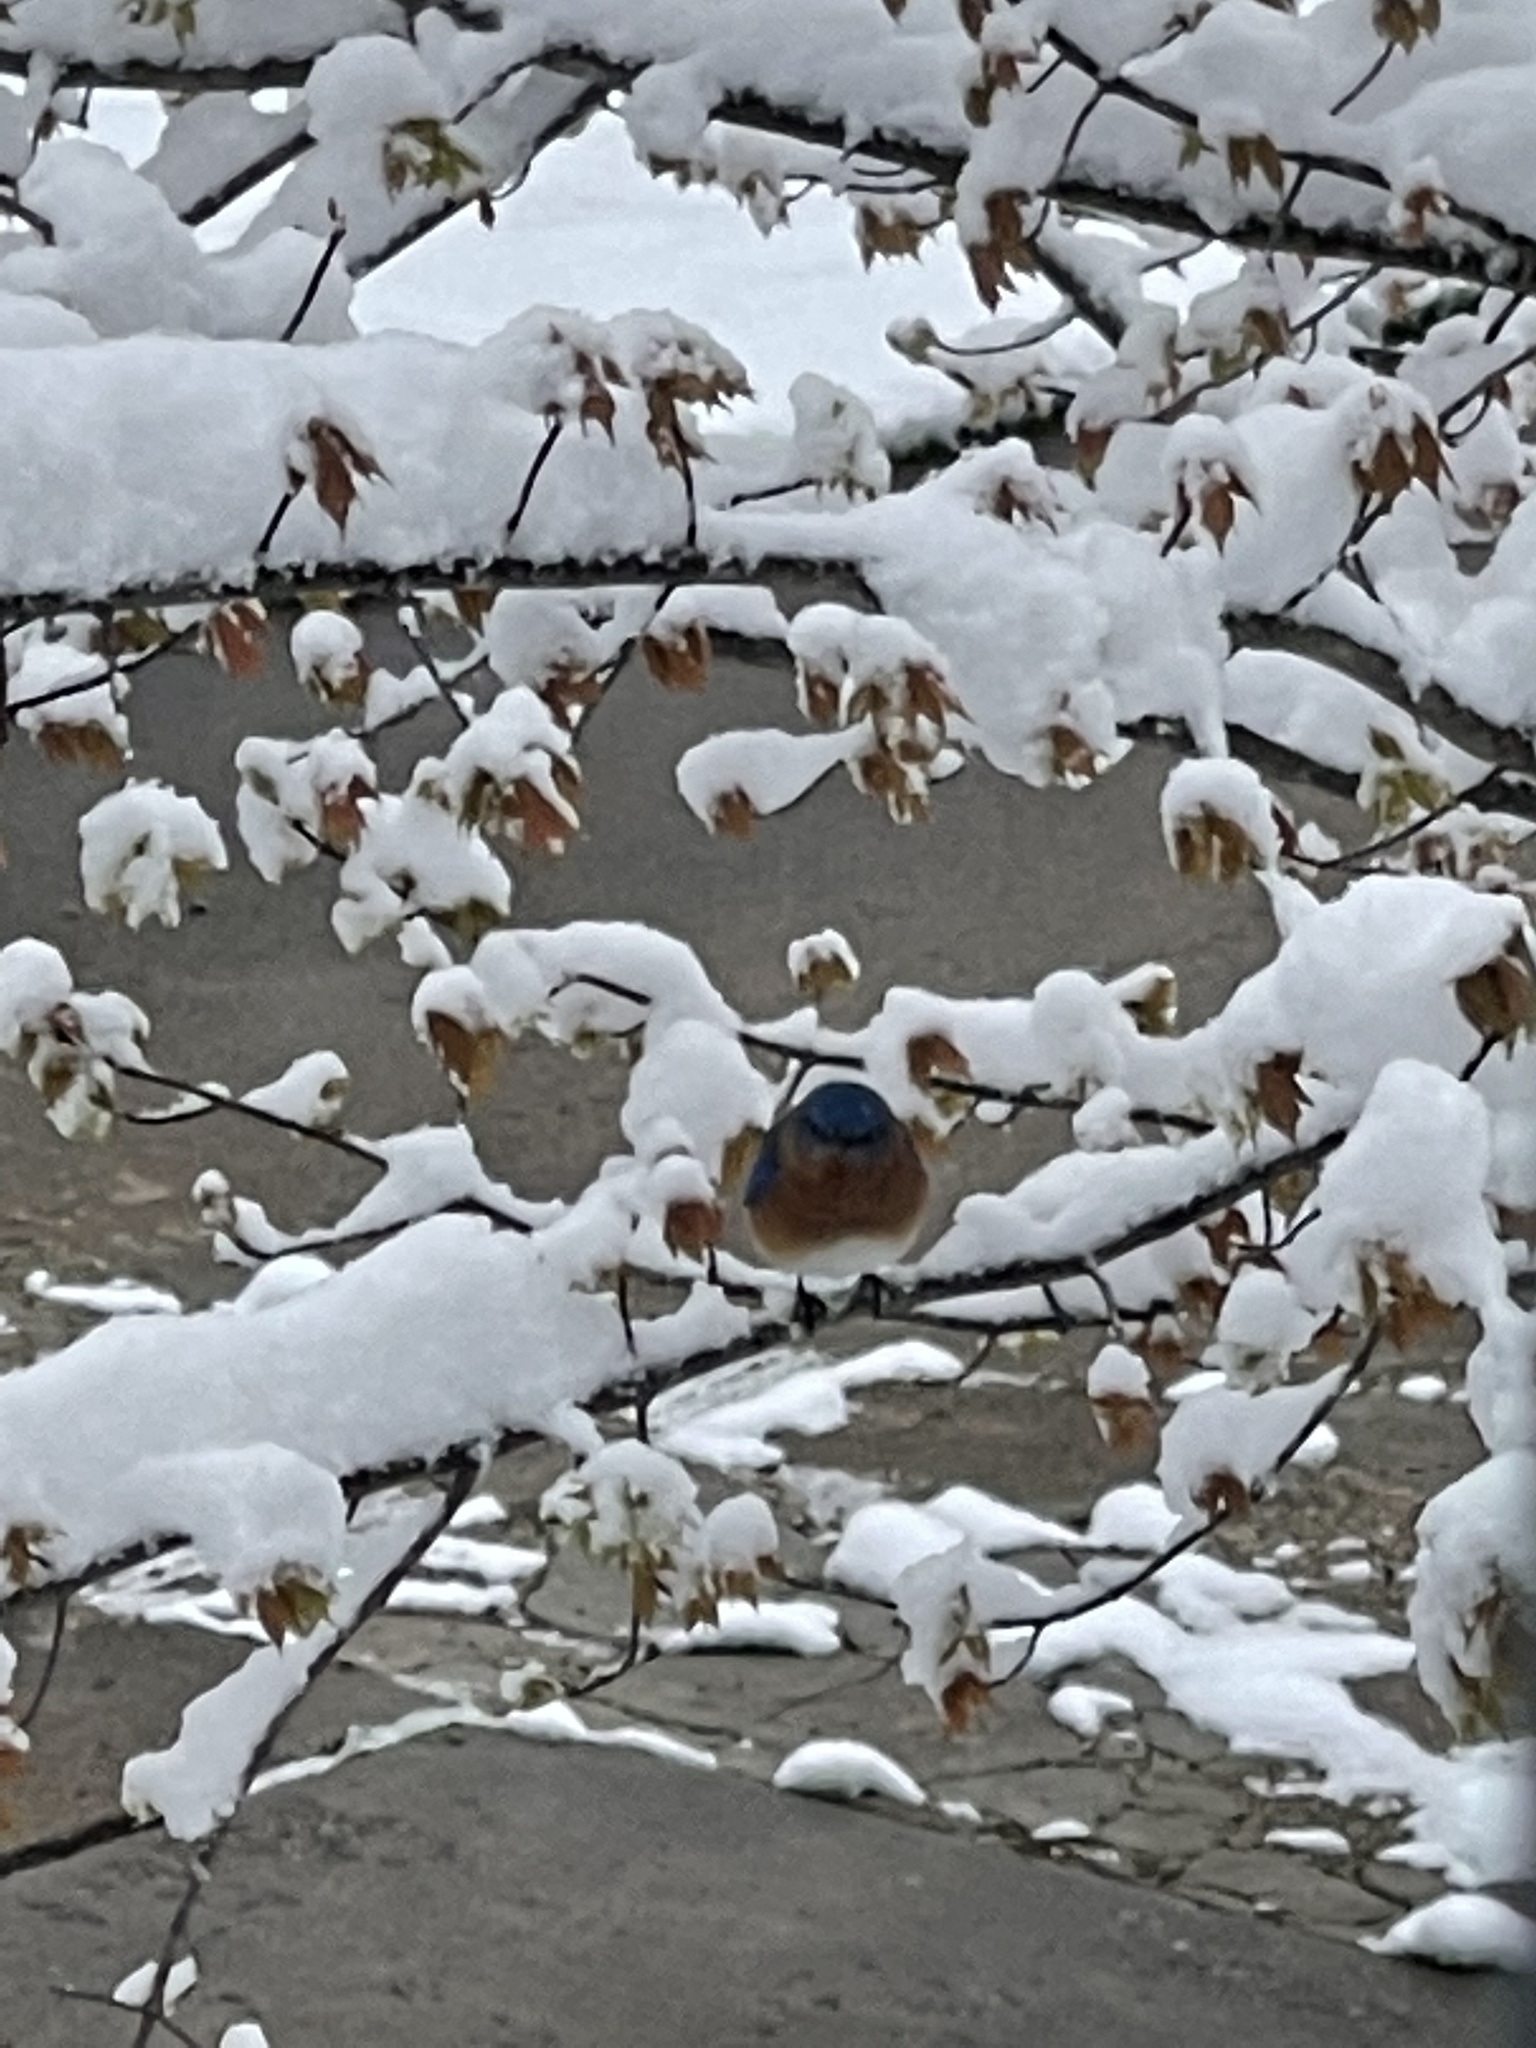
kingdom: Animalia
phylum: Chordata
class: Aves
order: Passeriformes
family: Turdidae
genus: Sialia
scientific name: Sialia sialis
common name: Eastern bluebird
